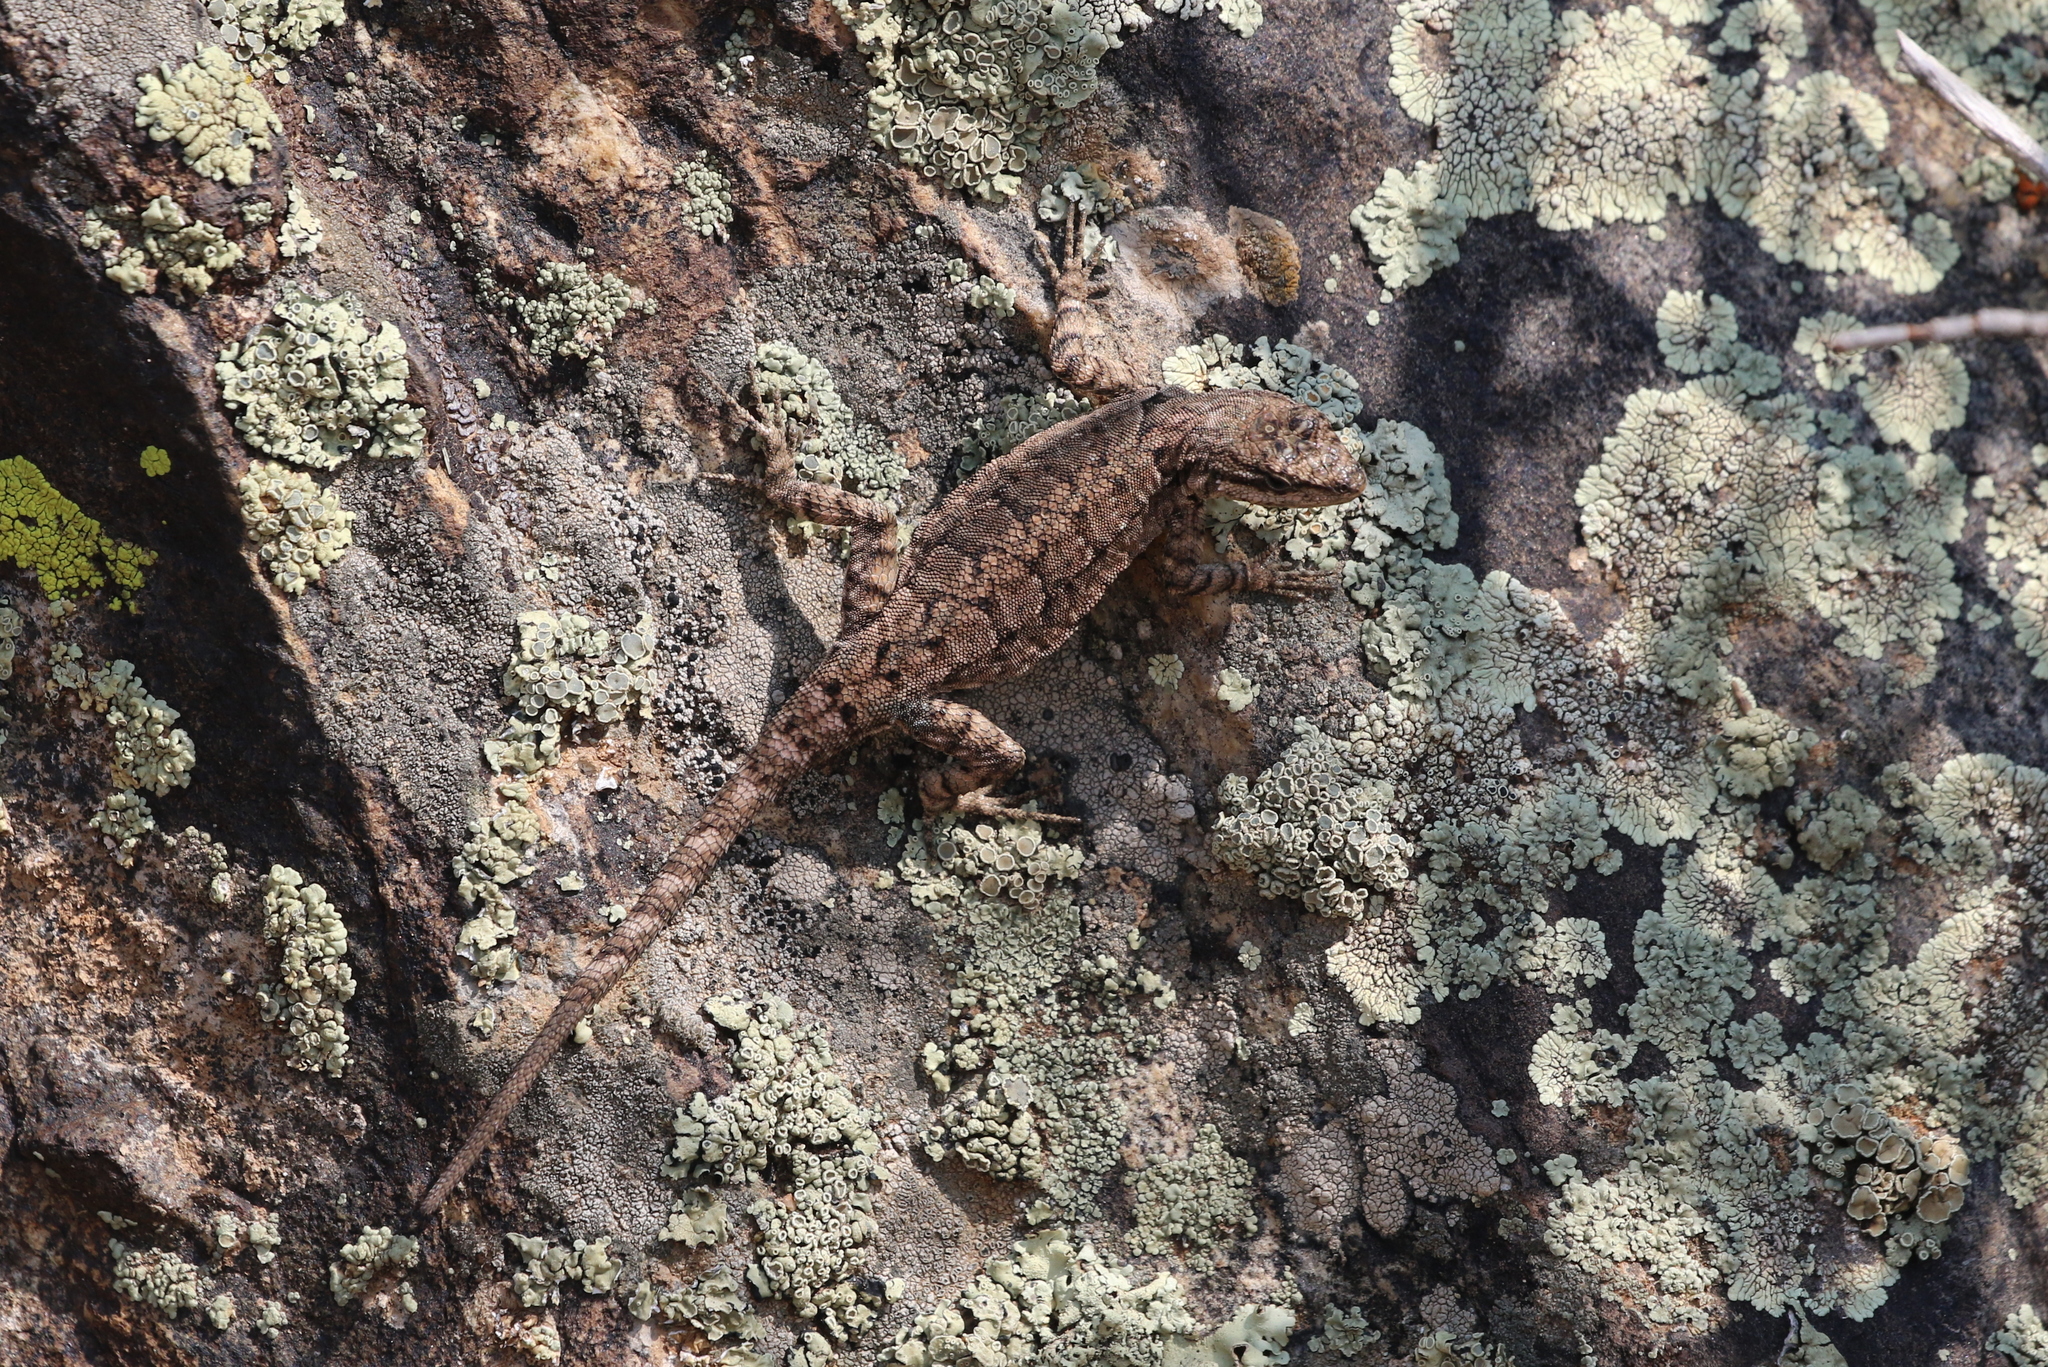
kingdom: Animalia
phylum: Chordata
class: Squamata
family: Phrynosomatidae
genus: Urosaurus
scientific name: Urosaurus ornatus
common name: Ornate tree lizard
